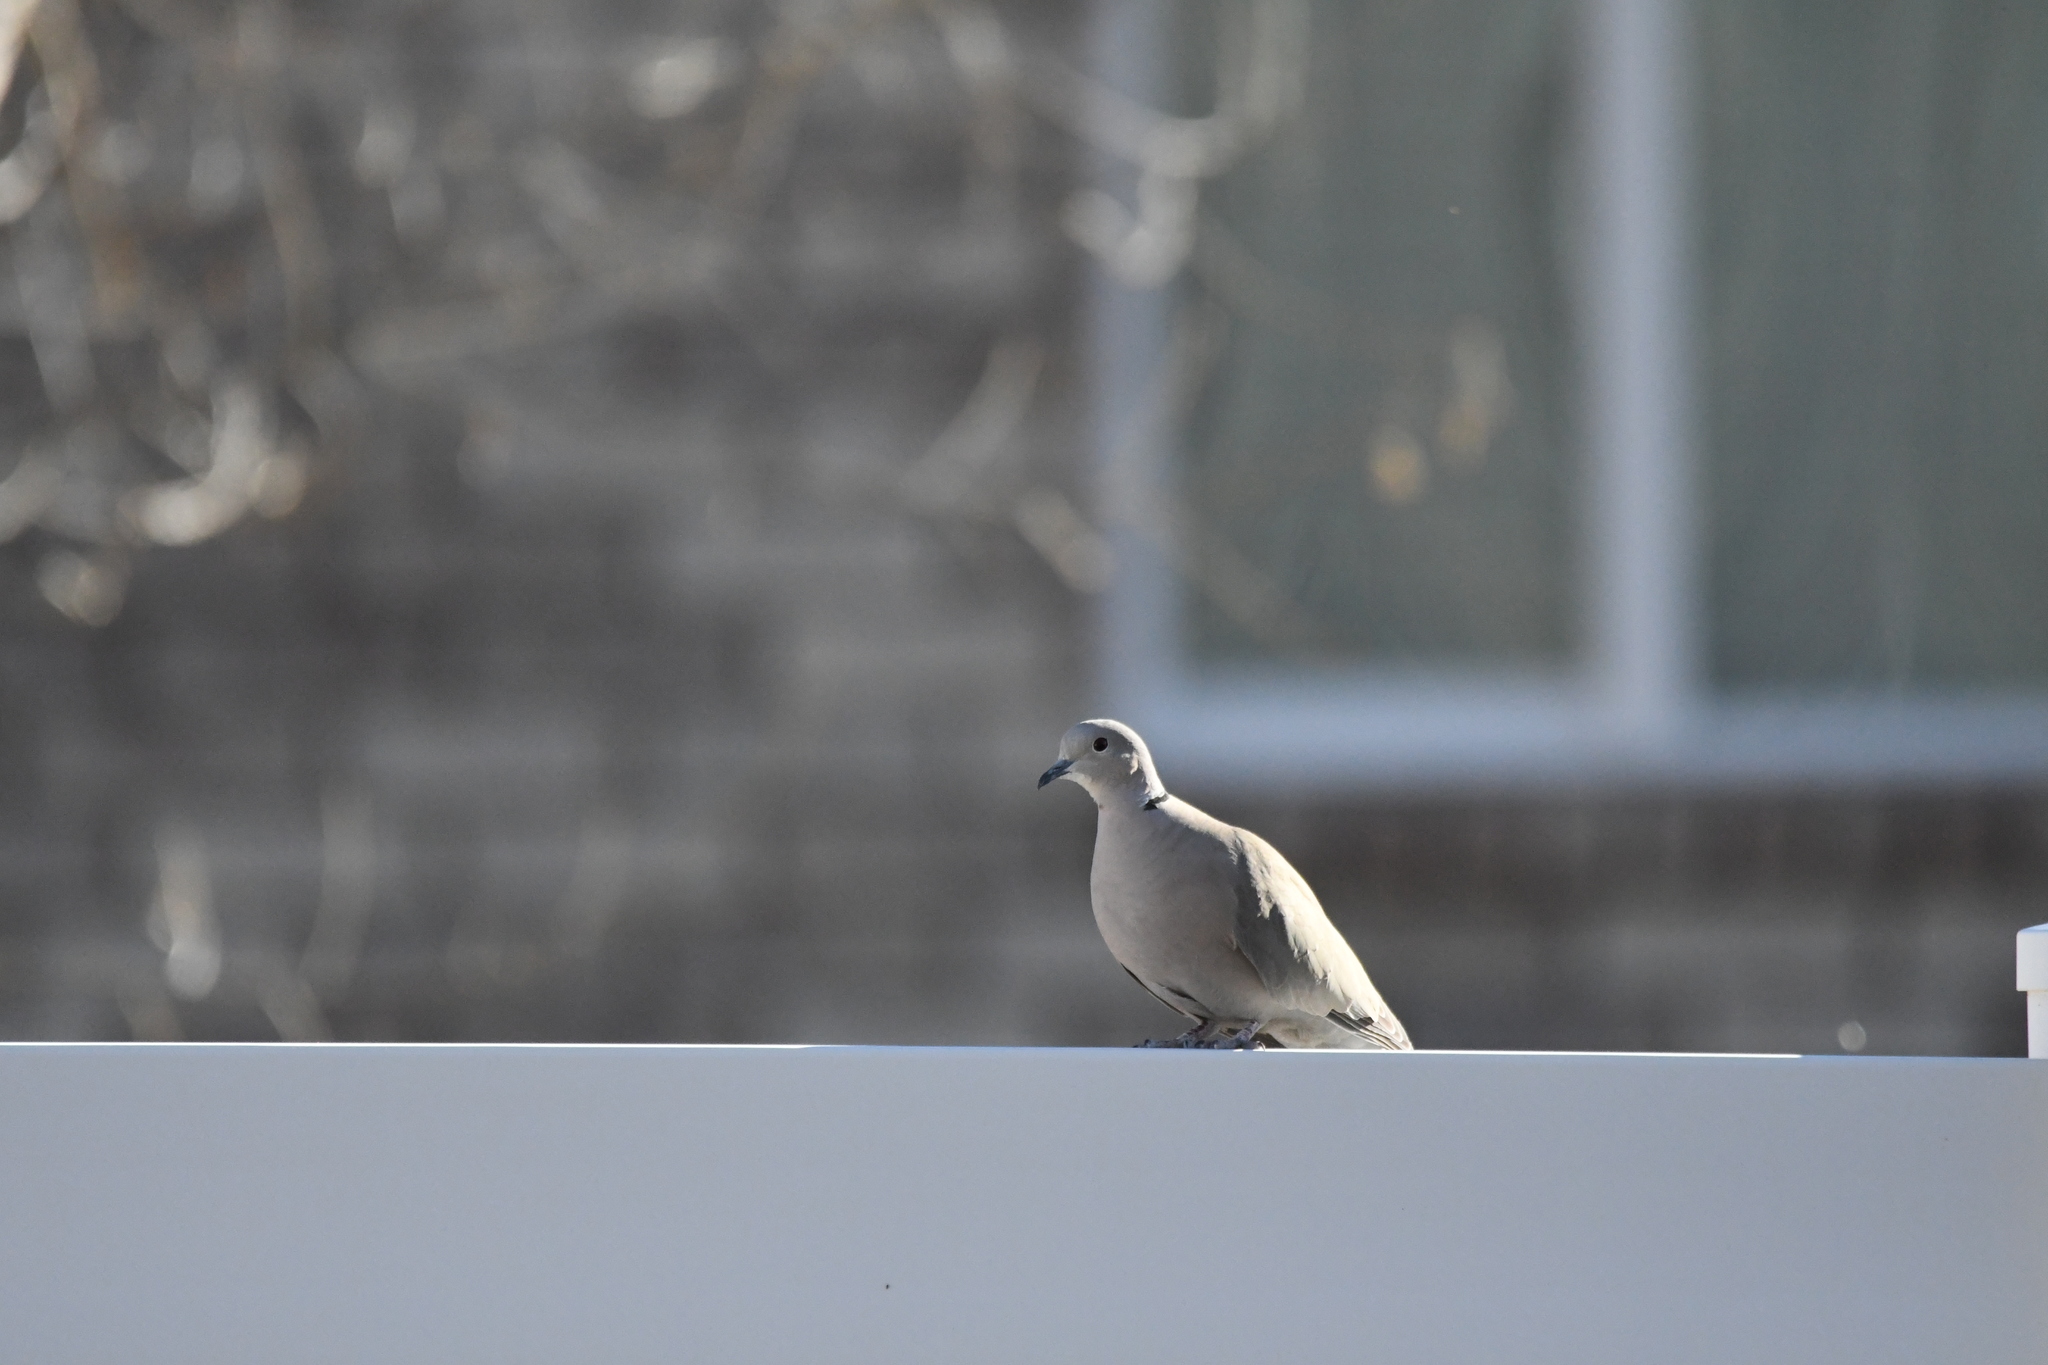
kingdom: Animalia
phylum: Chordata
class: Aves
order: Columbiformes
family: Columbidae
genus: Streptopelia
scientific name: Streptopelia decaocto
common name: Eurasian collared dove
